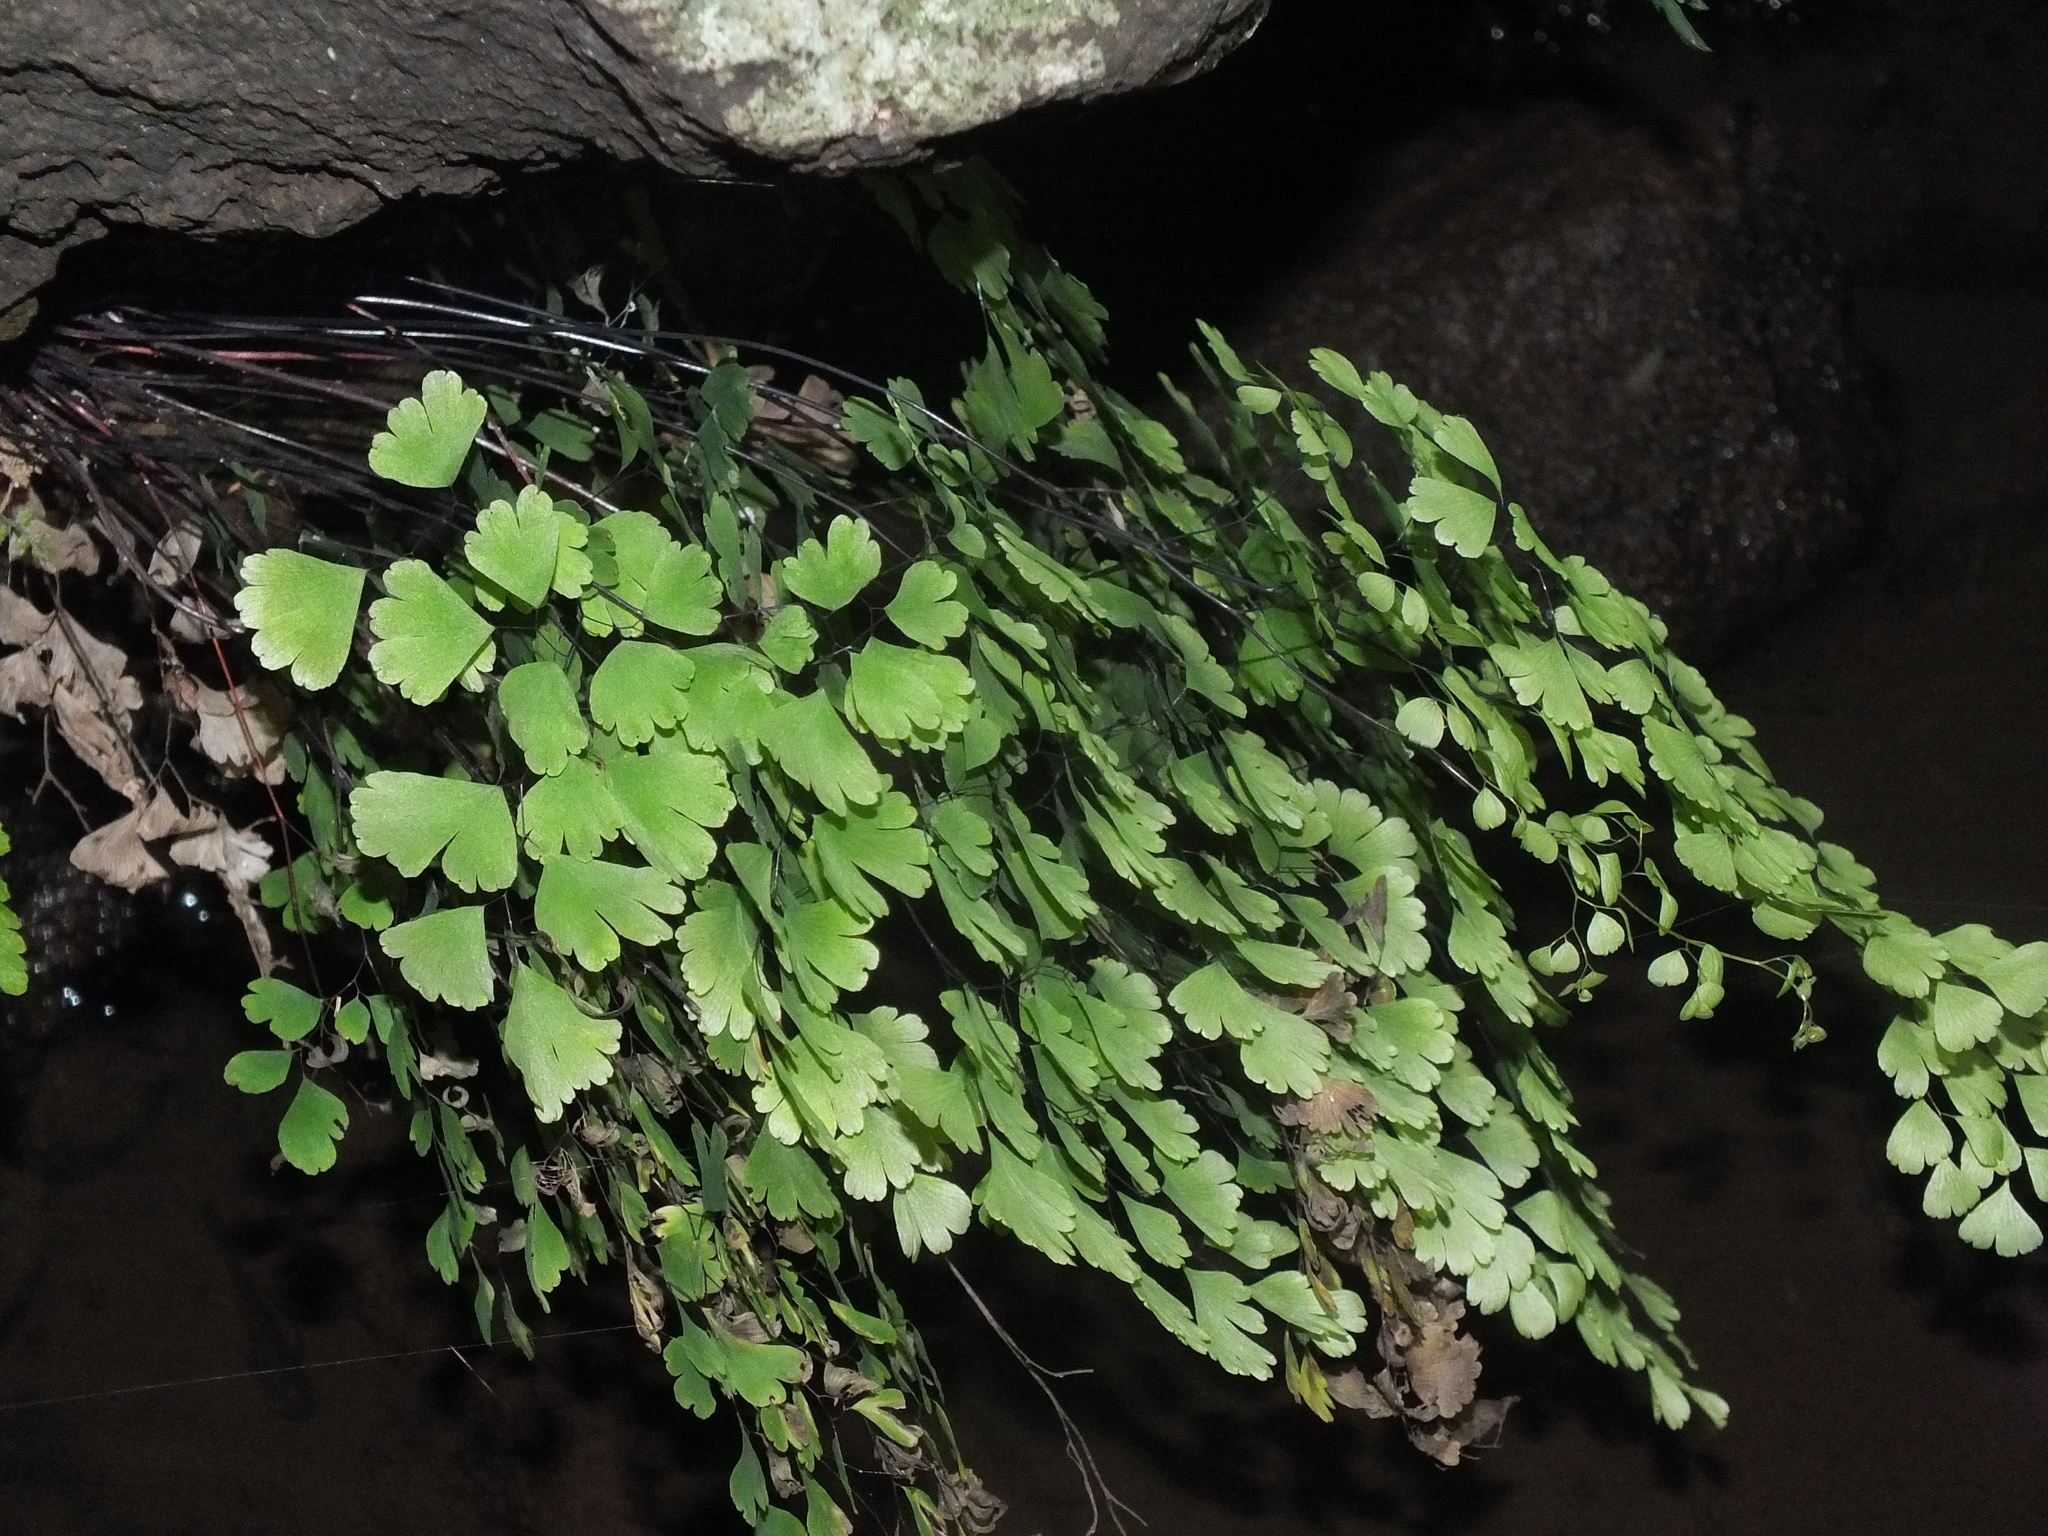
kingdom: Plantae
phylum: Tracheophyta
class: Polypodiopsida
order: Polypodiales
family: Pteridaceae
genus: Adiantum
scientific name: Adiantum raddianum
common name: Delta maidenhair fern
